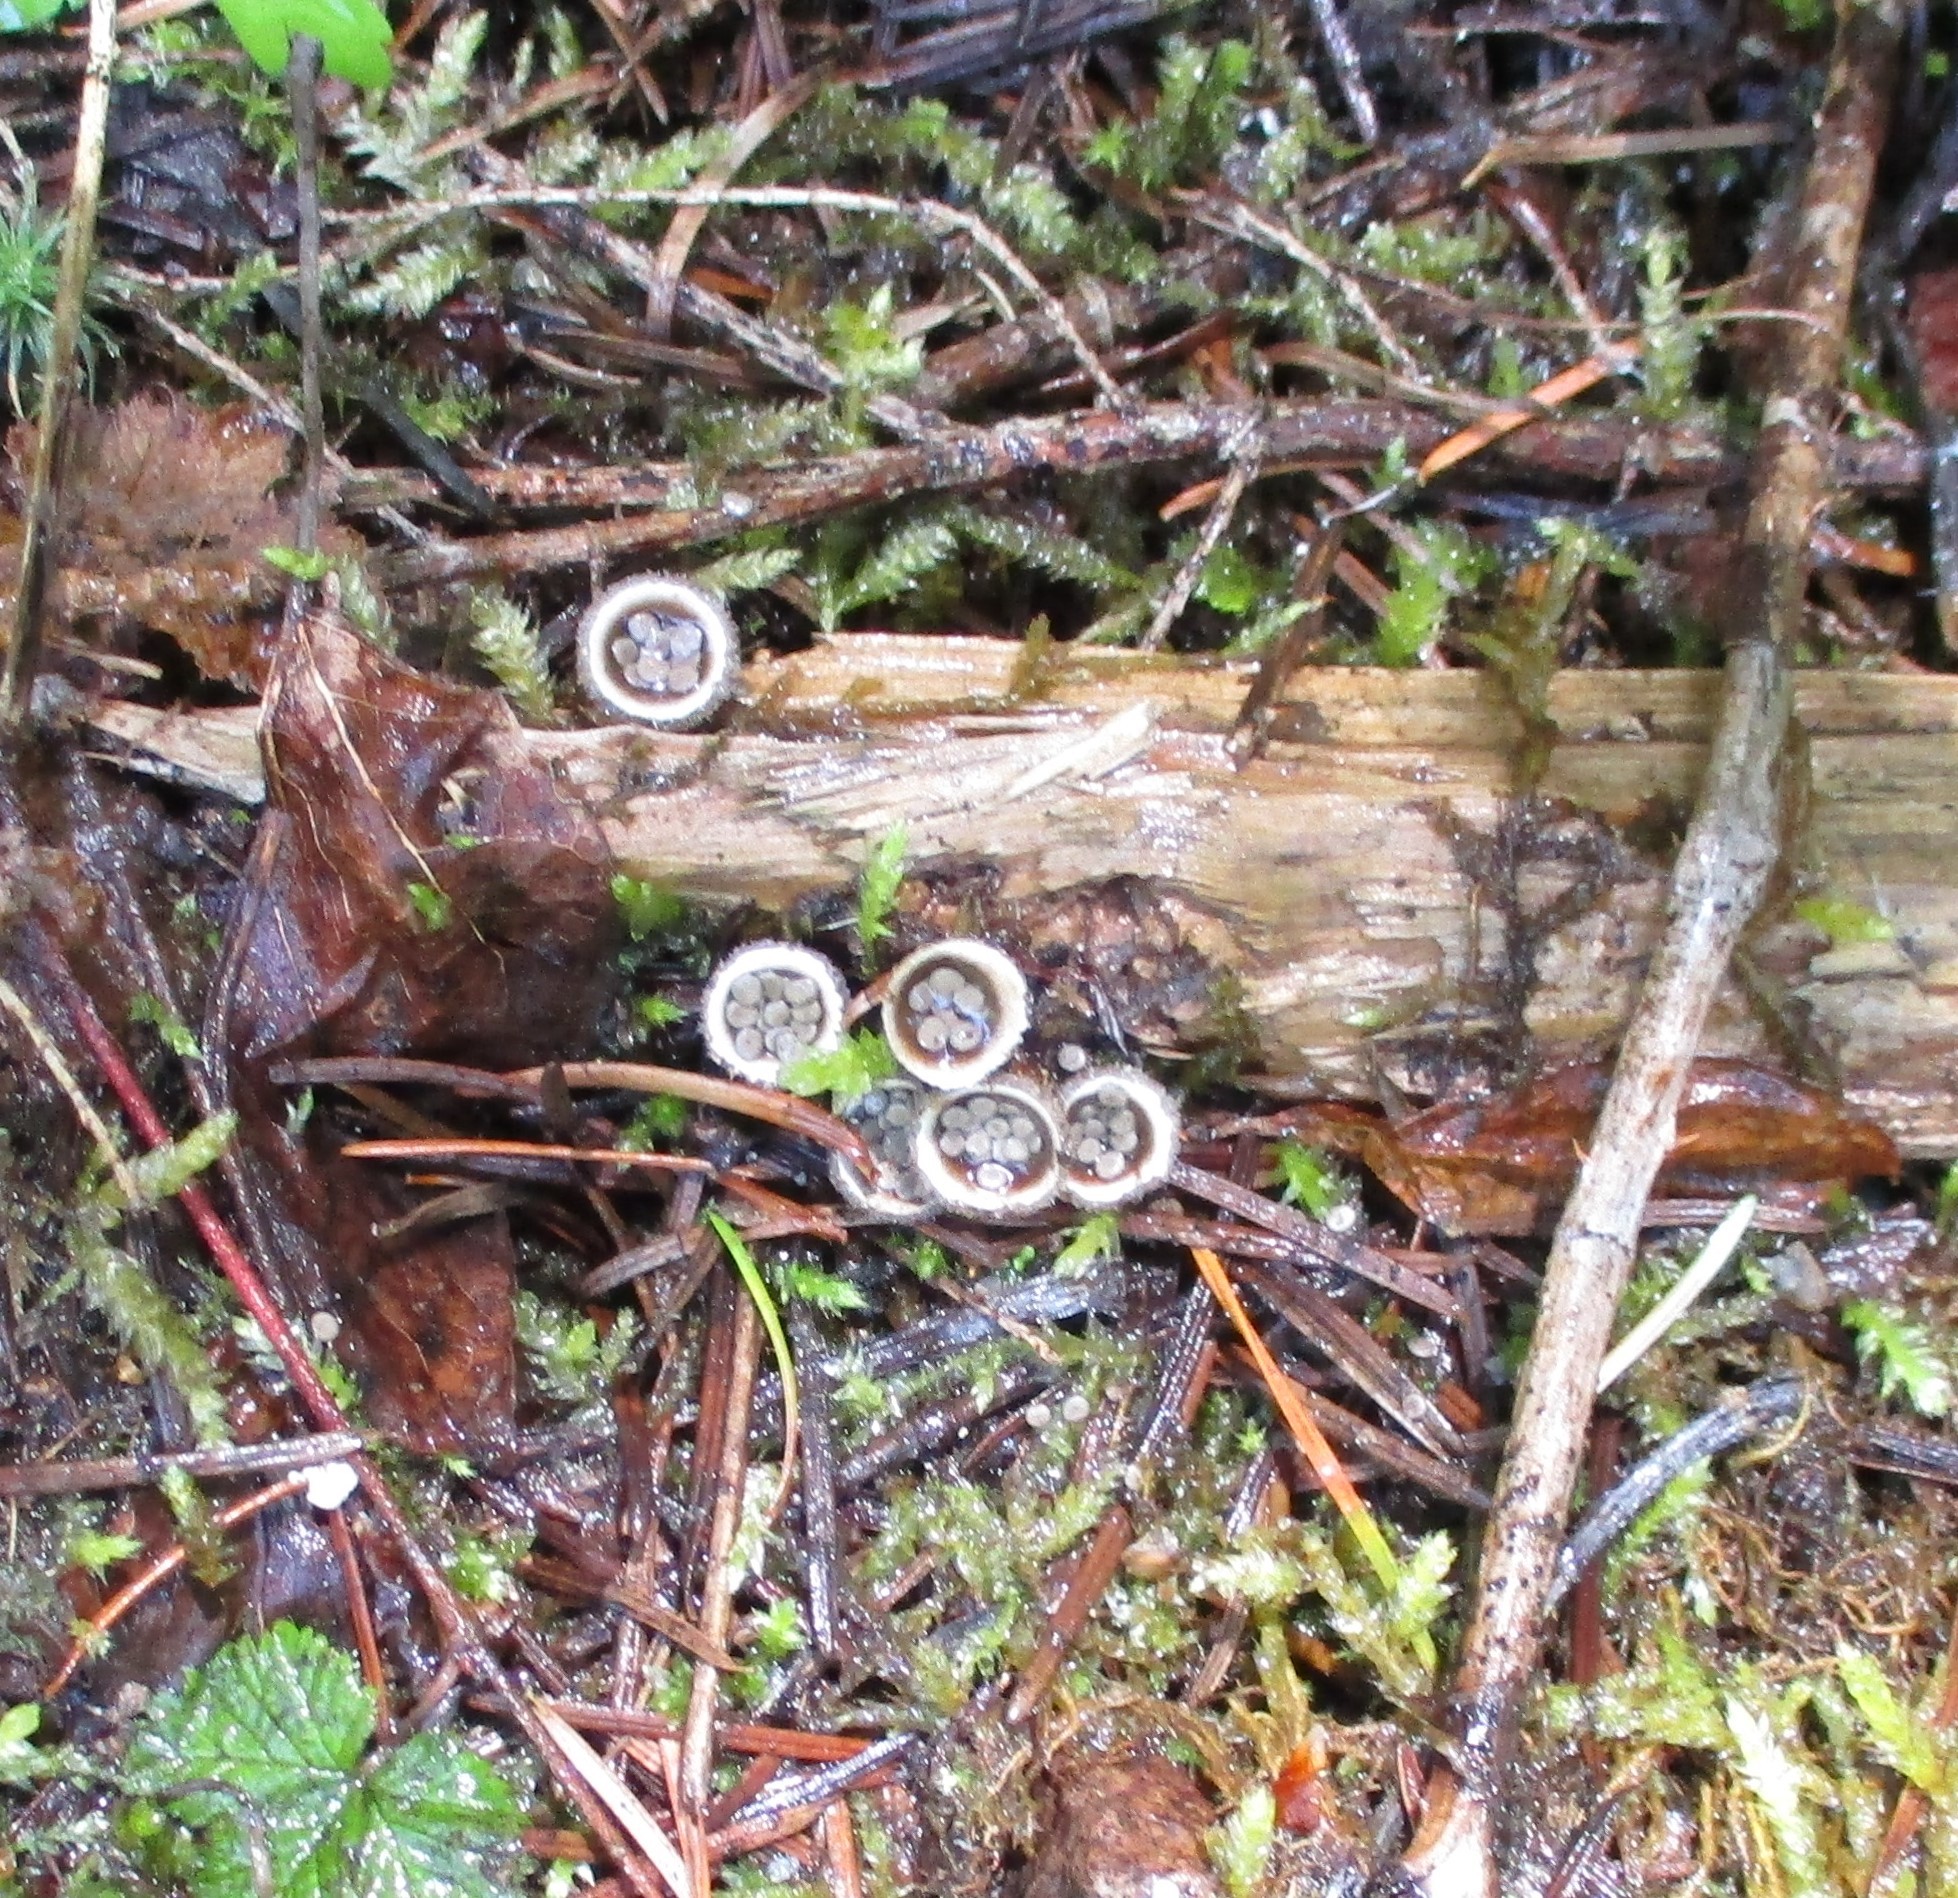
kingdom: Fungi
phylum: Basidiomycota
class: Agaricomycetes
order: Agaricales
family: Agaricaceae
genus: Nidula
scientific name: Nidula candida
